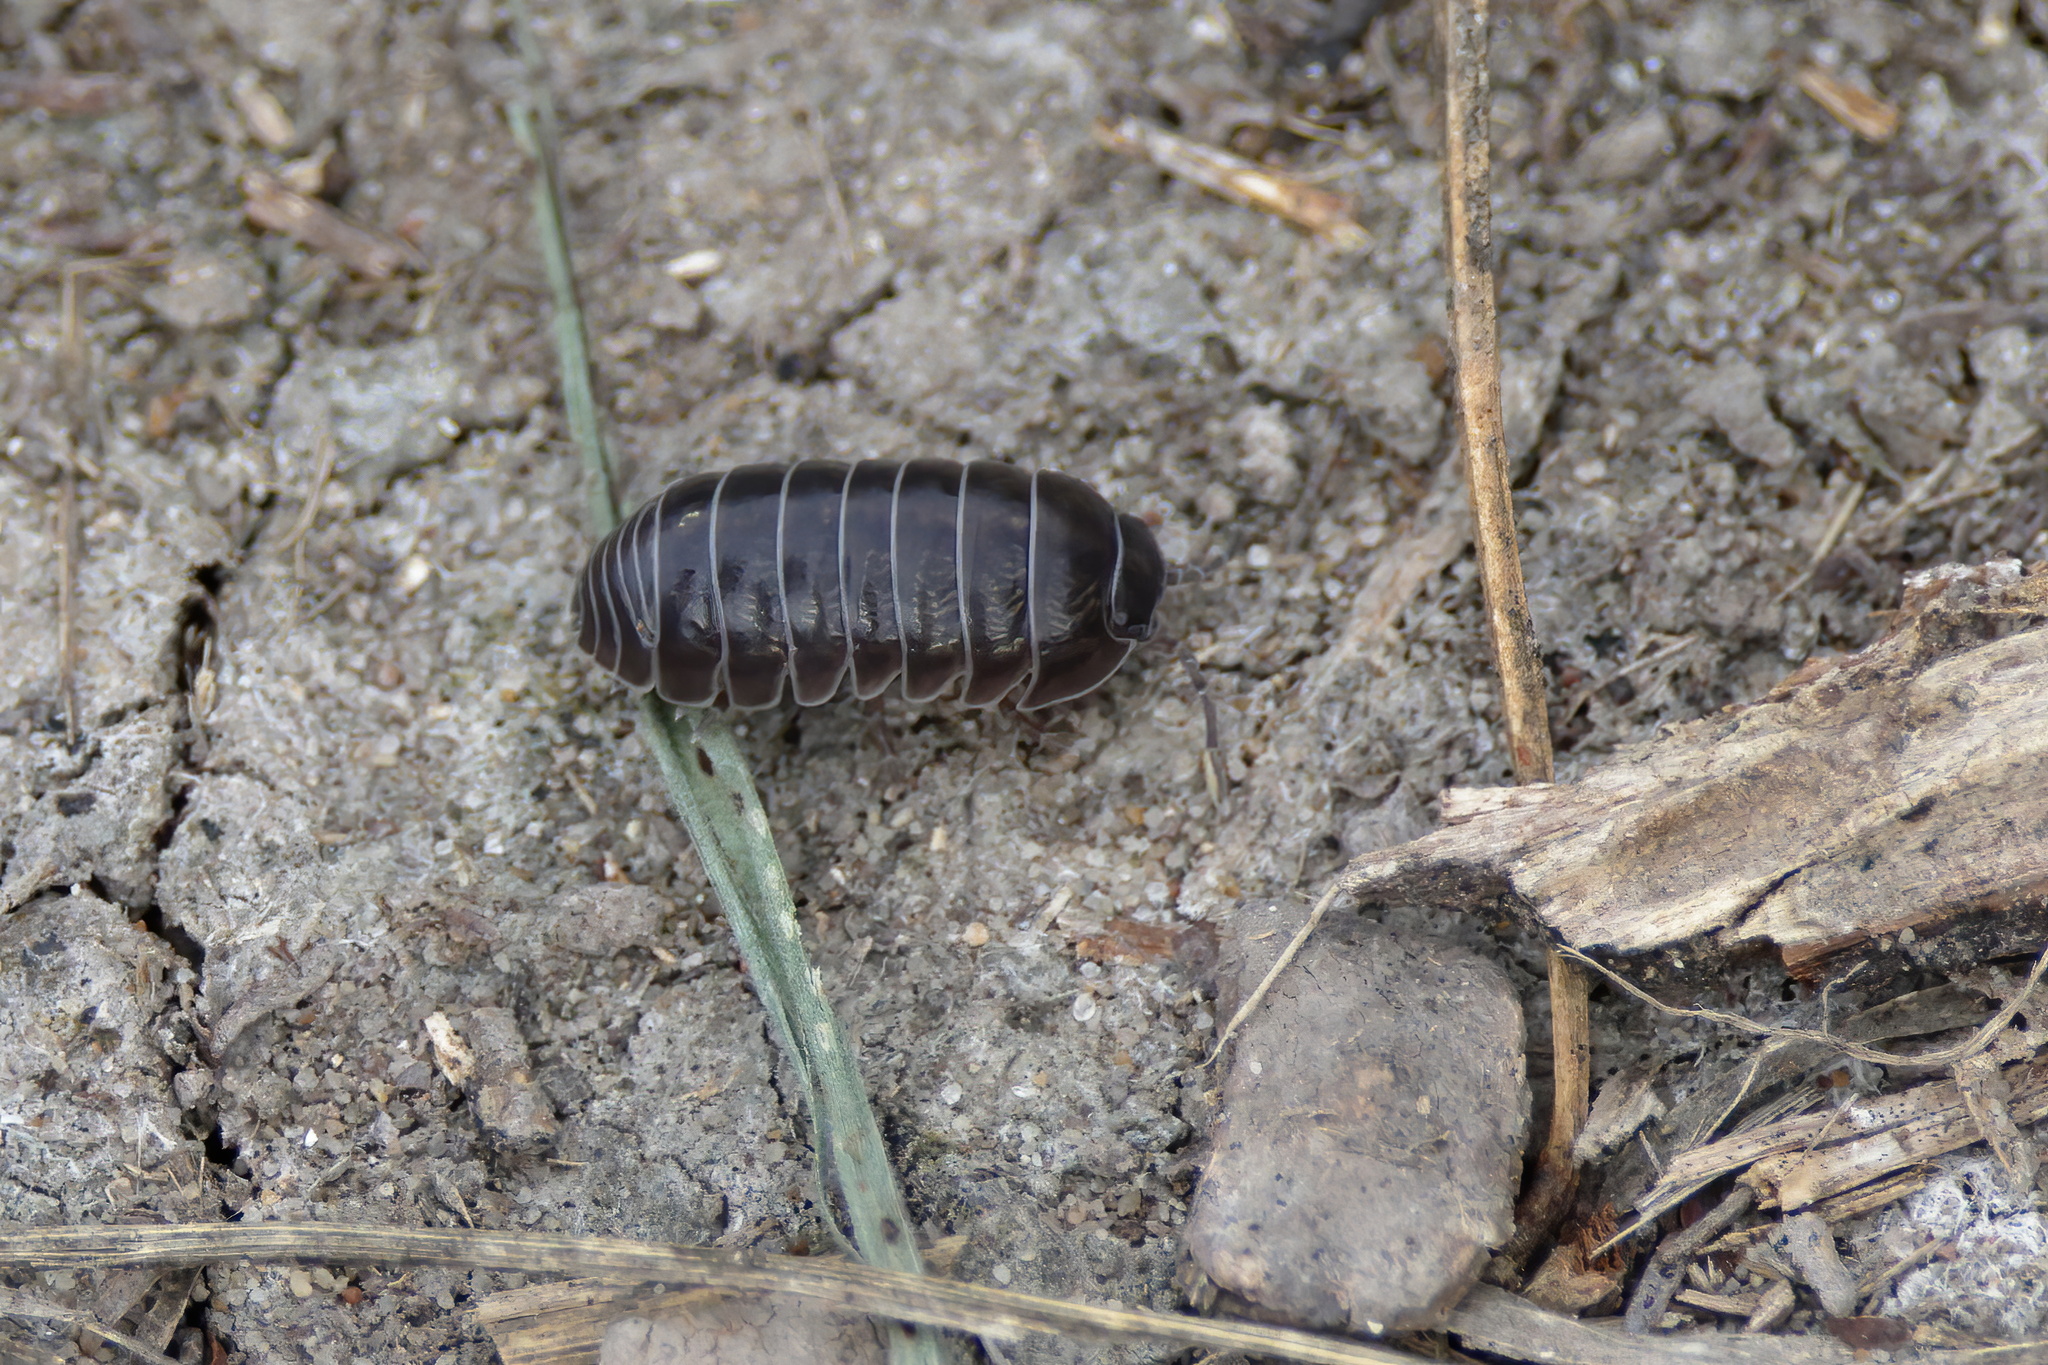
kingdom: Animalia
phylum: Arthropoda
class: Malacostraca
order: Isopoda
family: Armadillidiidae
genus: Armadillidium
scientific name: Armadillidium vulgare
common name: Common pill woodlouse
